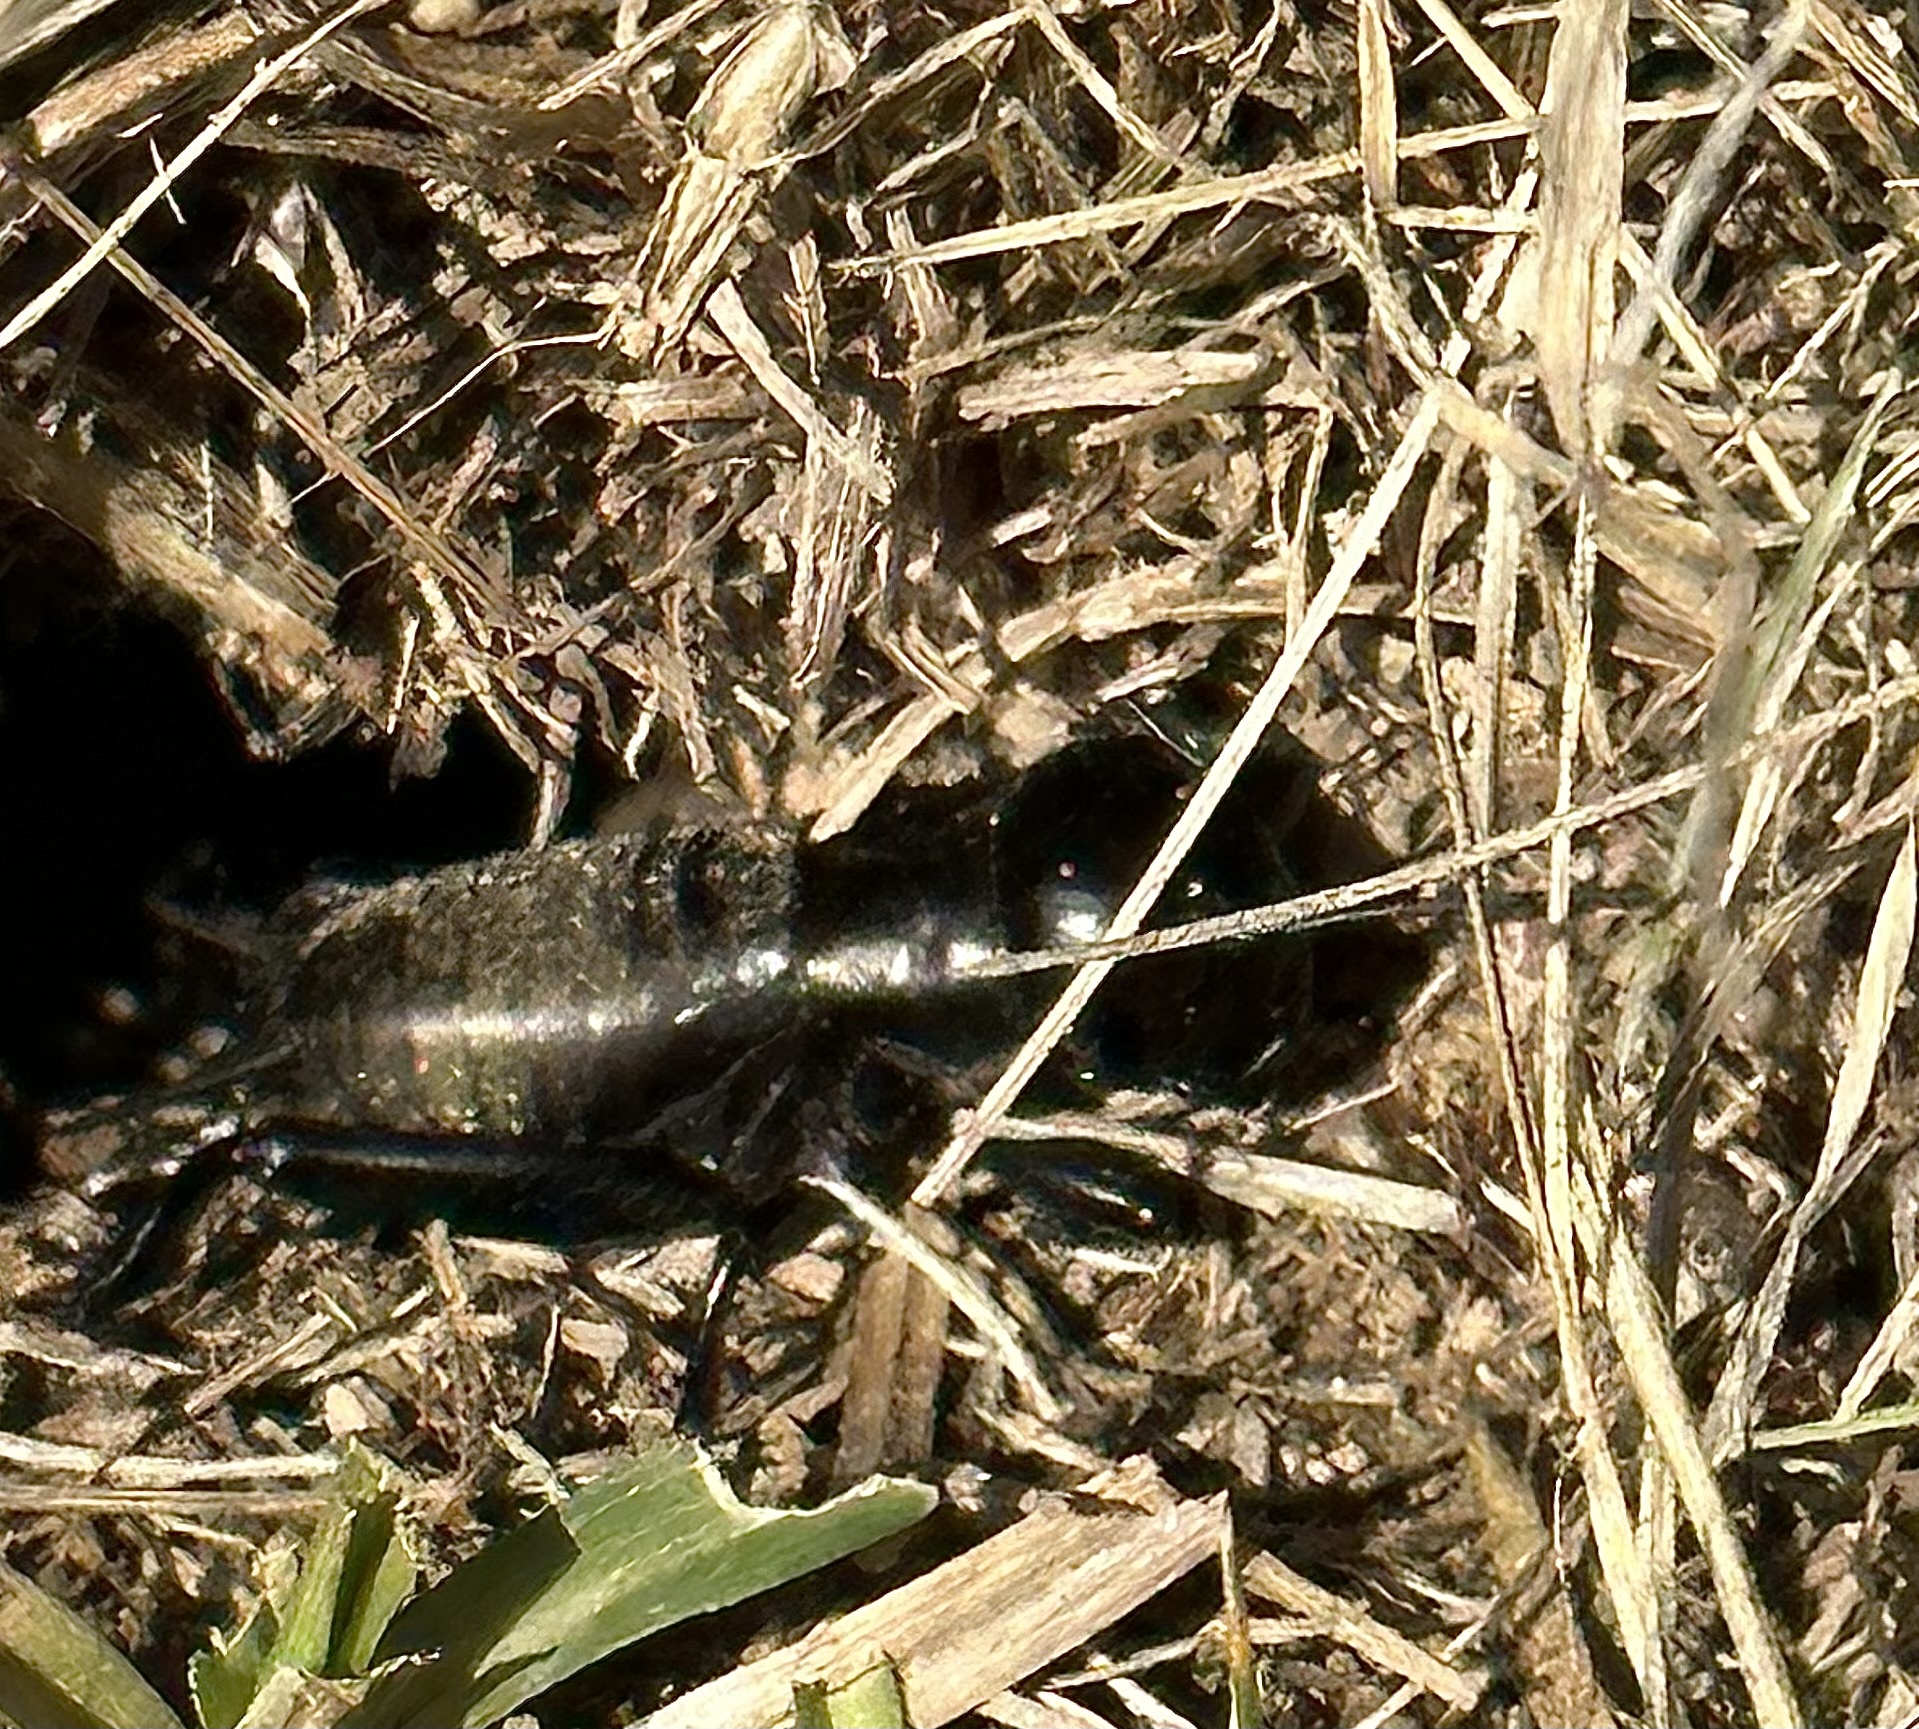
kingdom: Animalia
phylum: Arthropoda
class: Insecta
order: Orthoptera
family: Gryllidae
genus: Gryllus
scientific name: Gryllus campestris
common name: Field cricket
